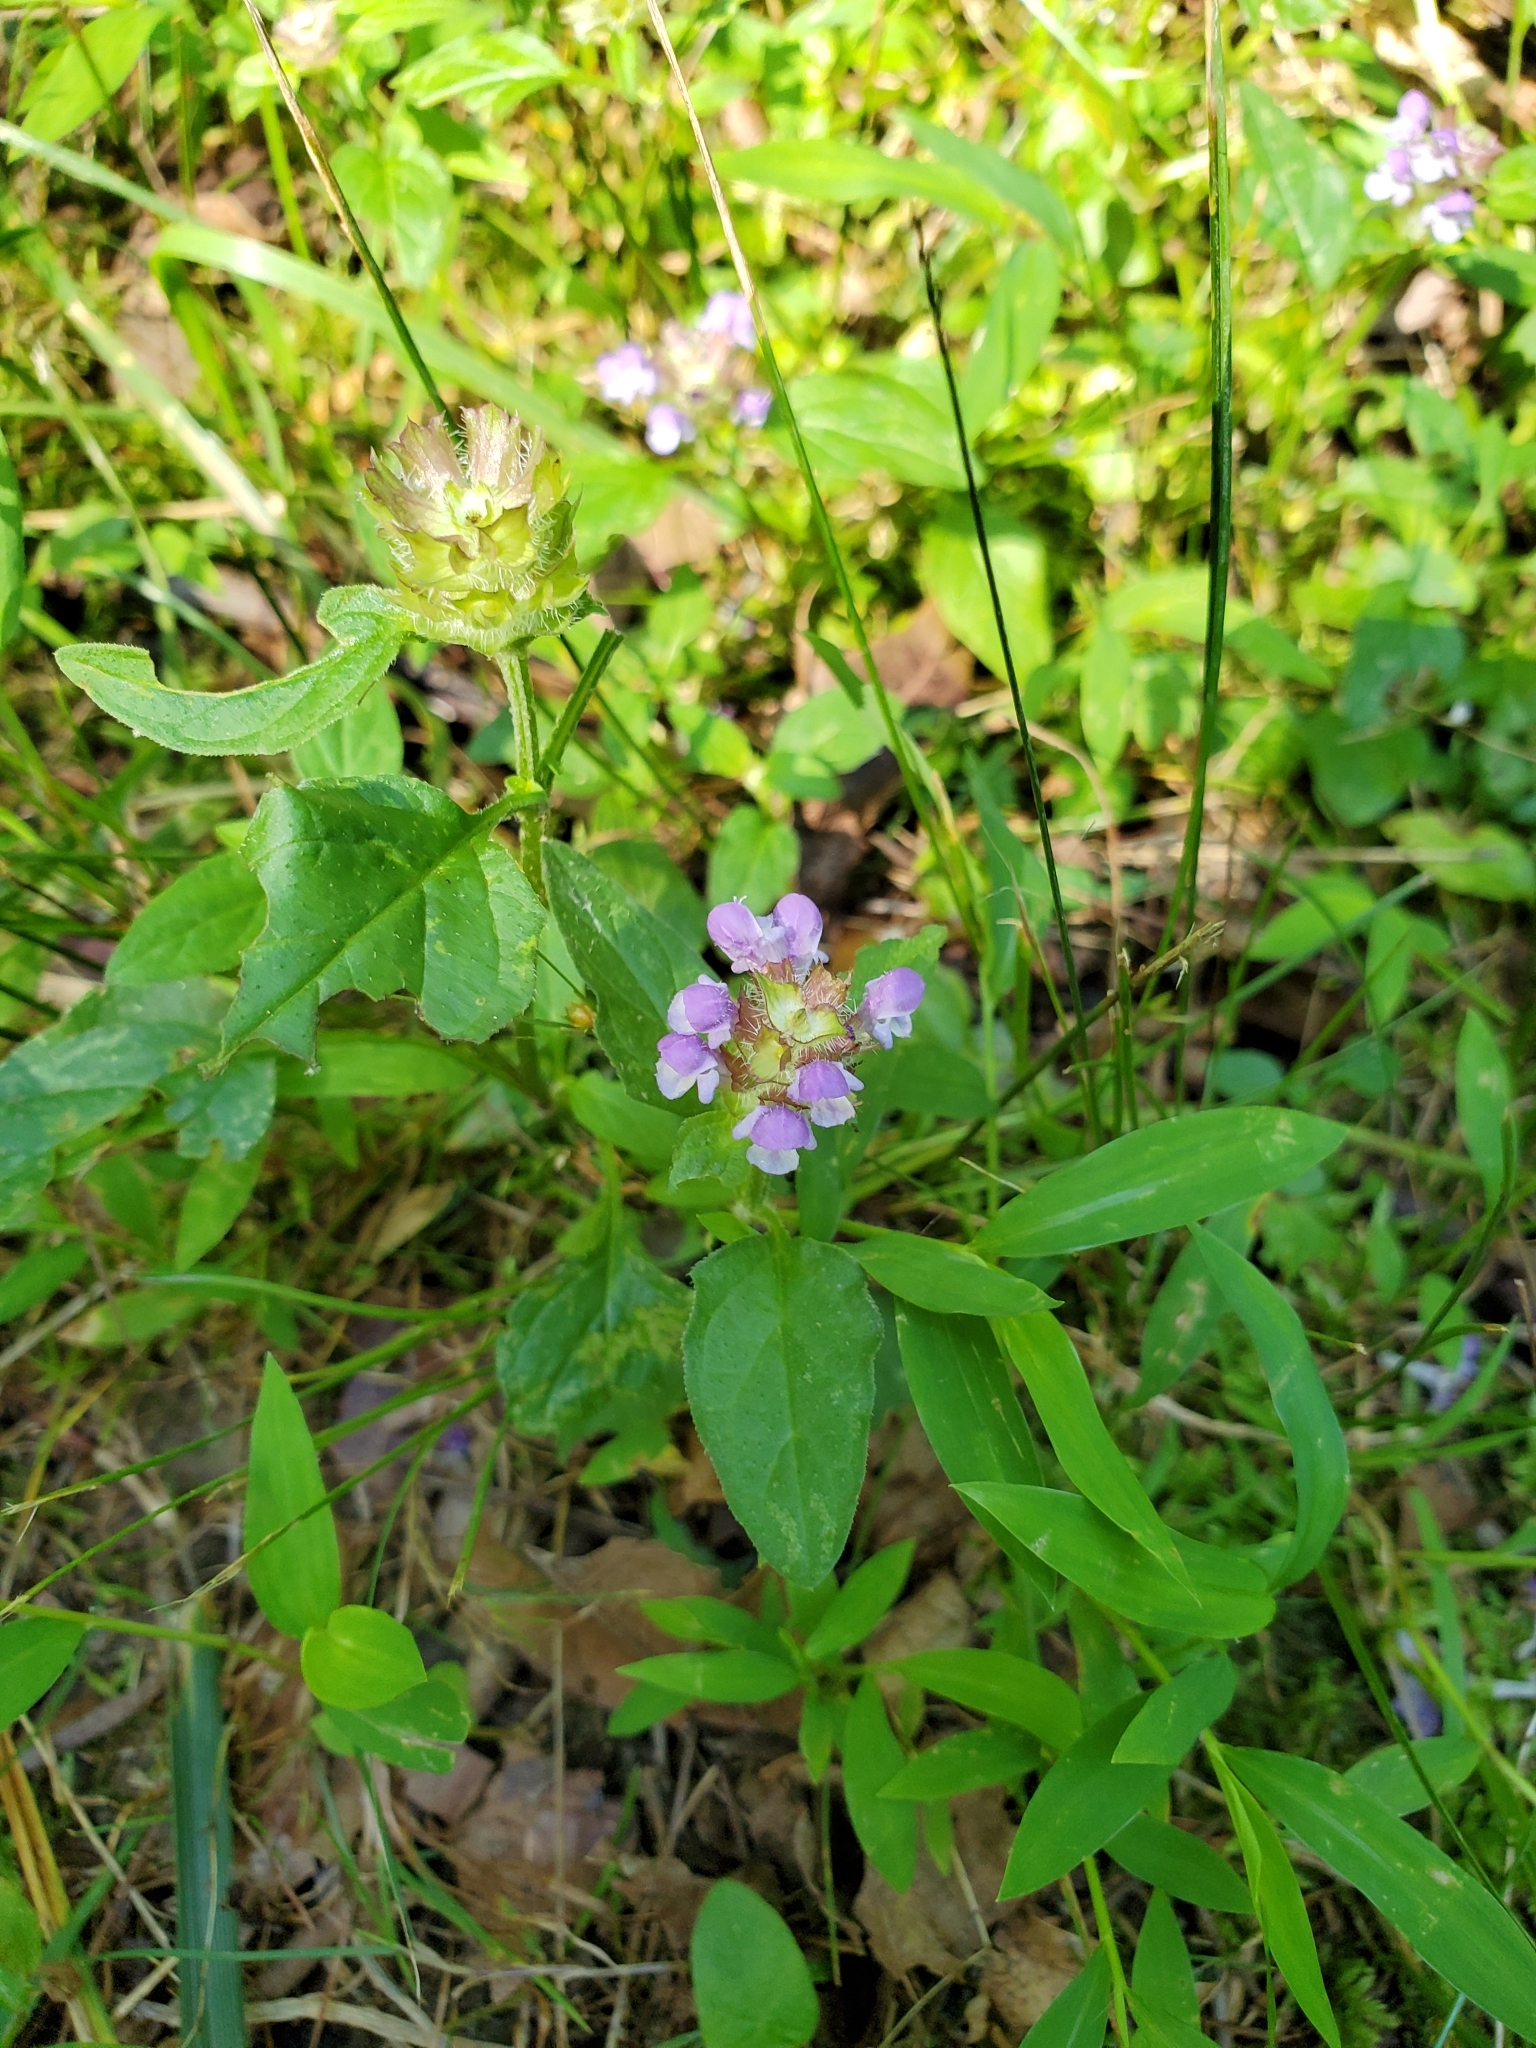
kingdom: Plantae
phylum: Tracheophyta
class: Magnoliopsida
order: Lamiales
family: Lamiaceae
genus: Prunella
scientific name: Prunella vulgaris
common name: Heal-all
